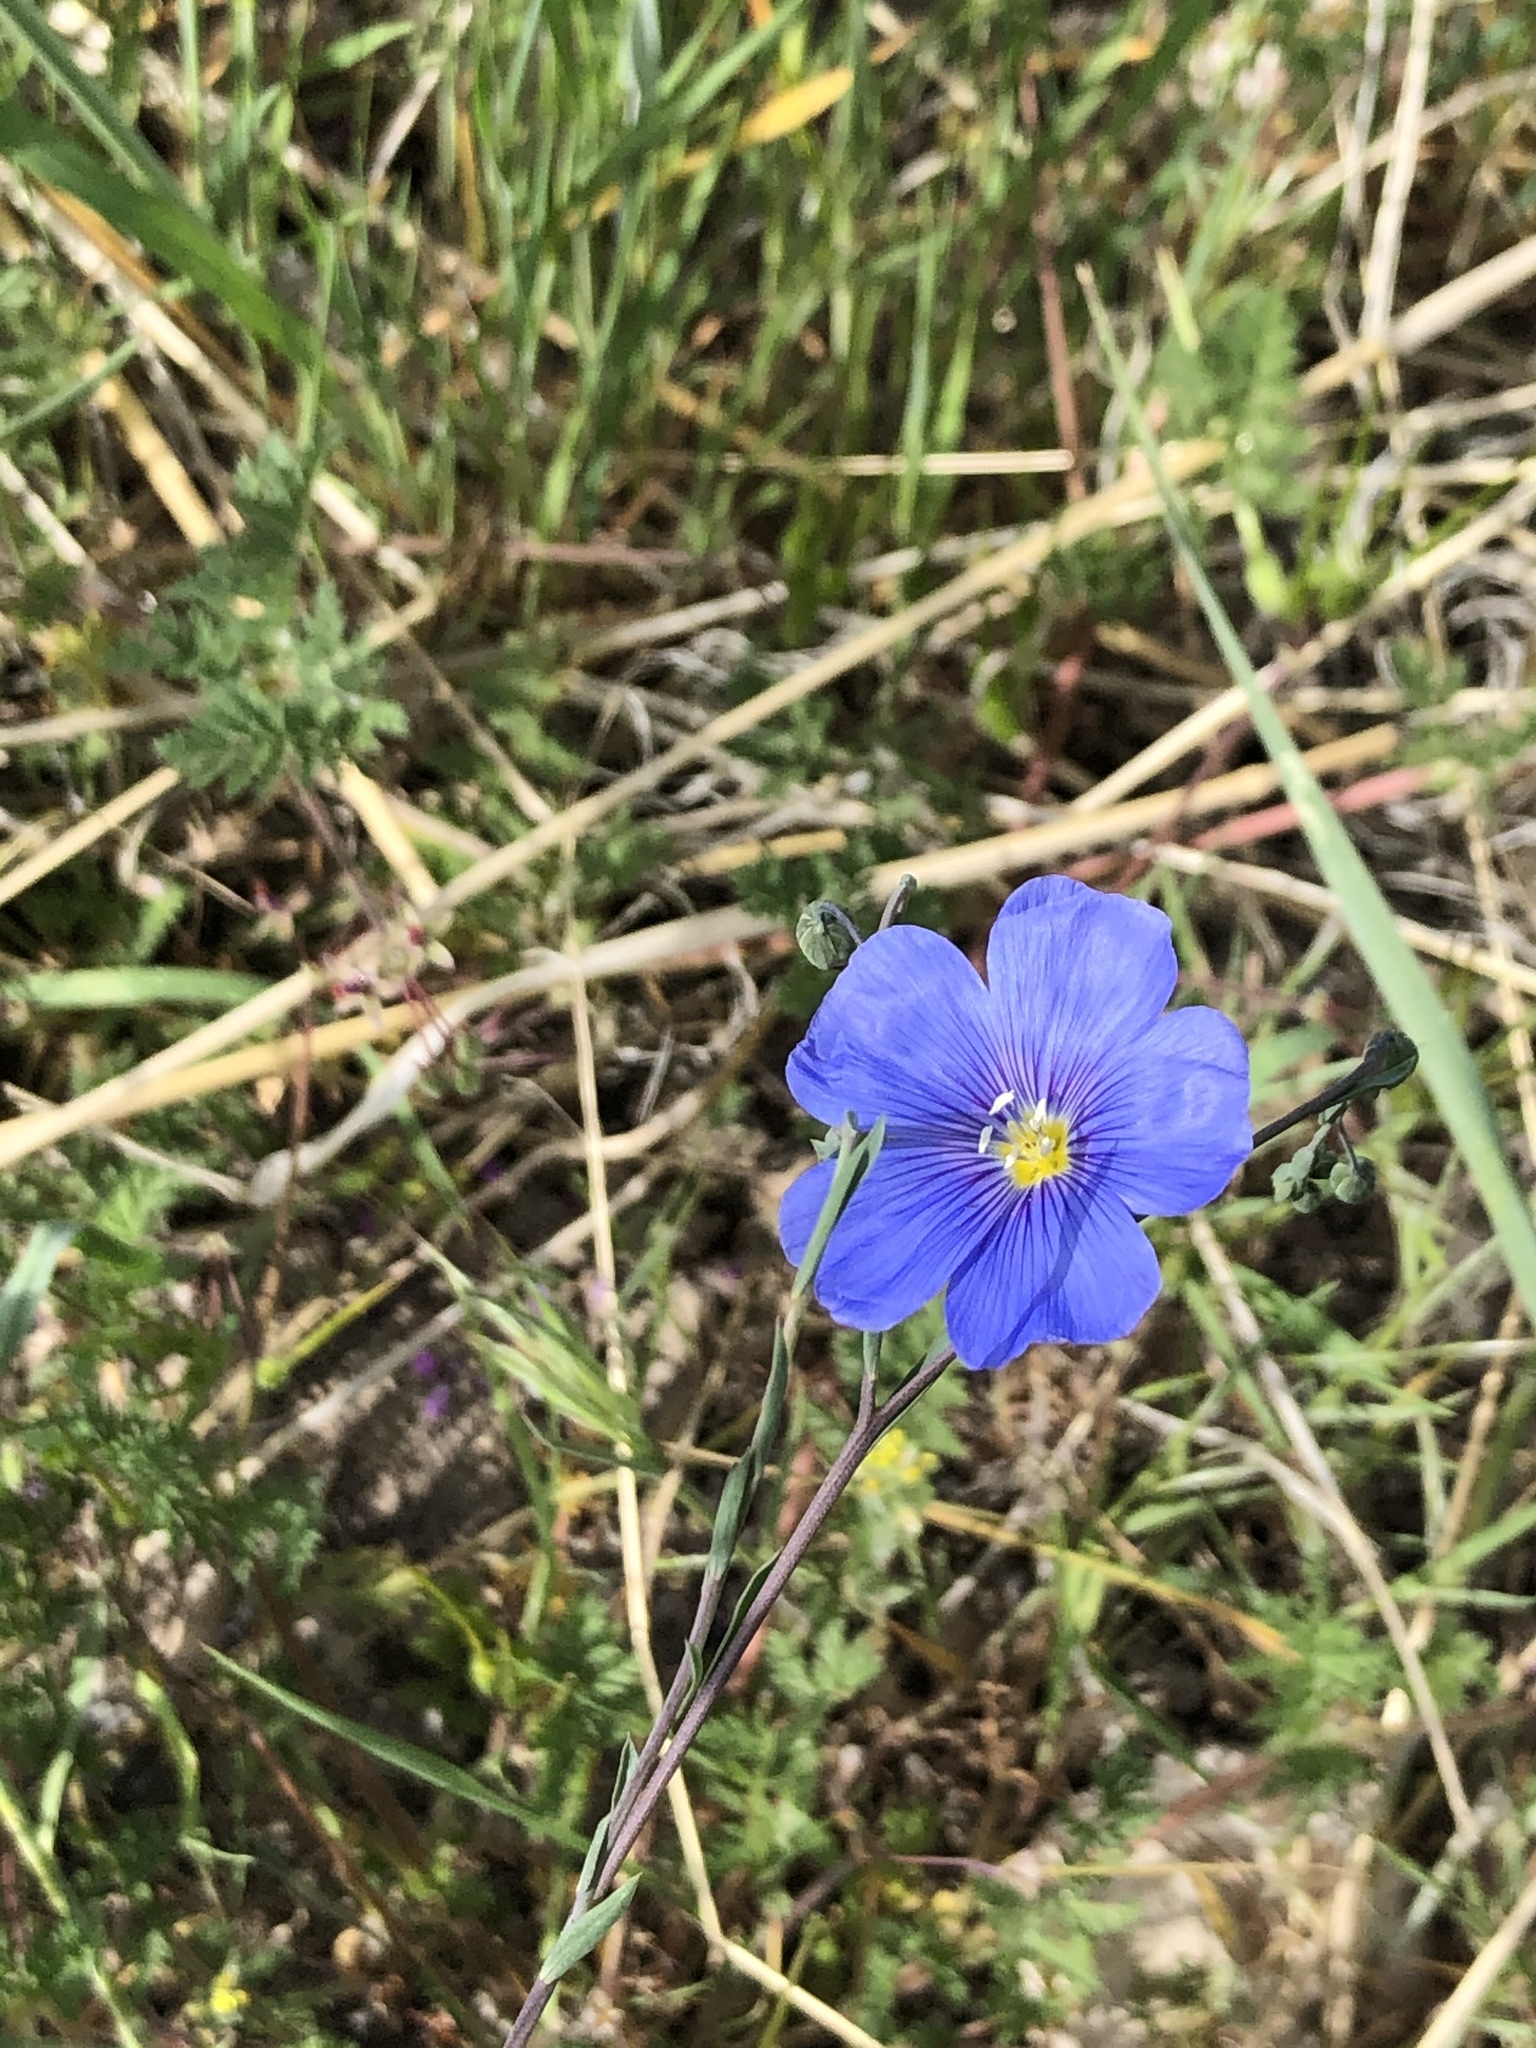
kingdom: Plantae
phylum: Tracheophyta
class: Magnoliopsida
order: Malpighiales
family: Linaceae
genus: Linum
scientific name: Linum lewisii
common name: Prairie flax
